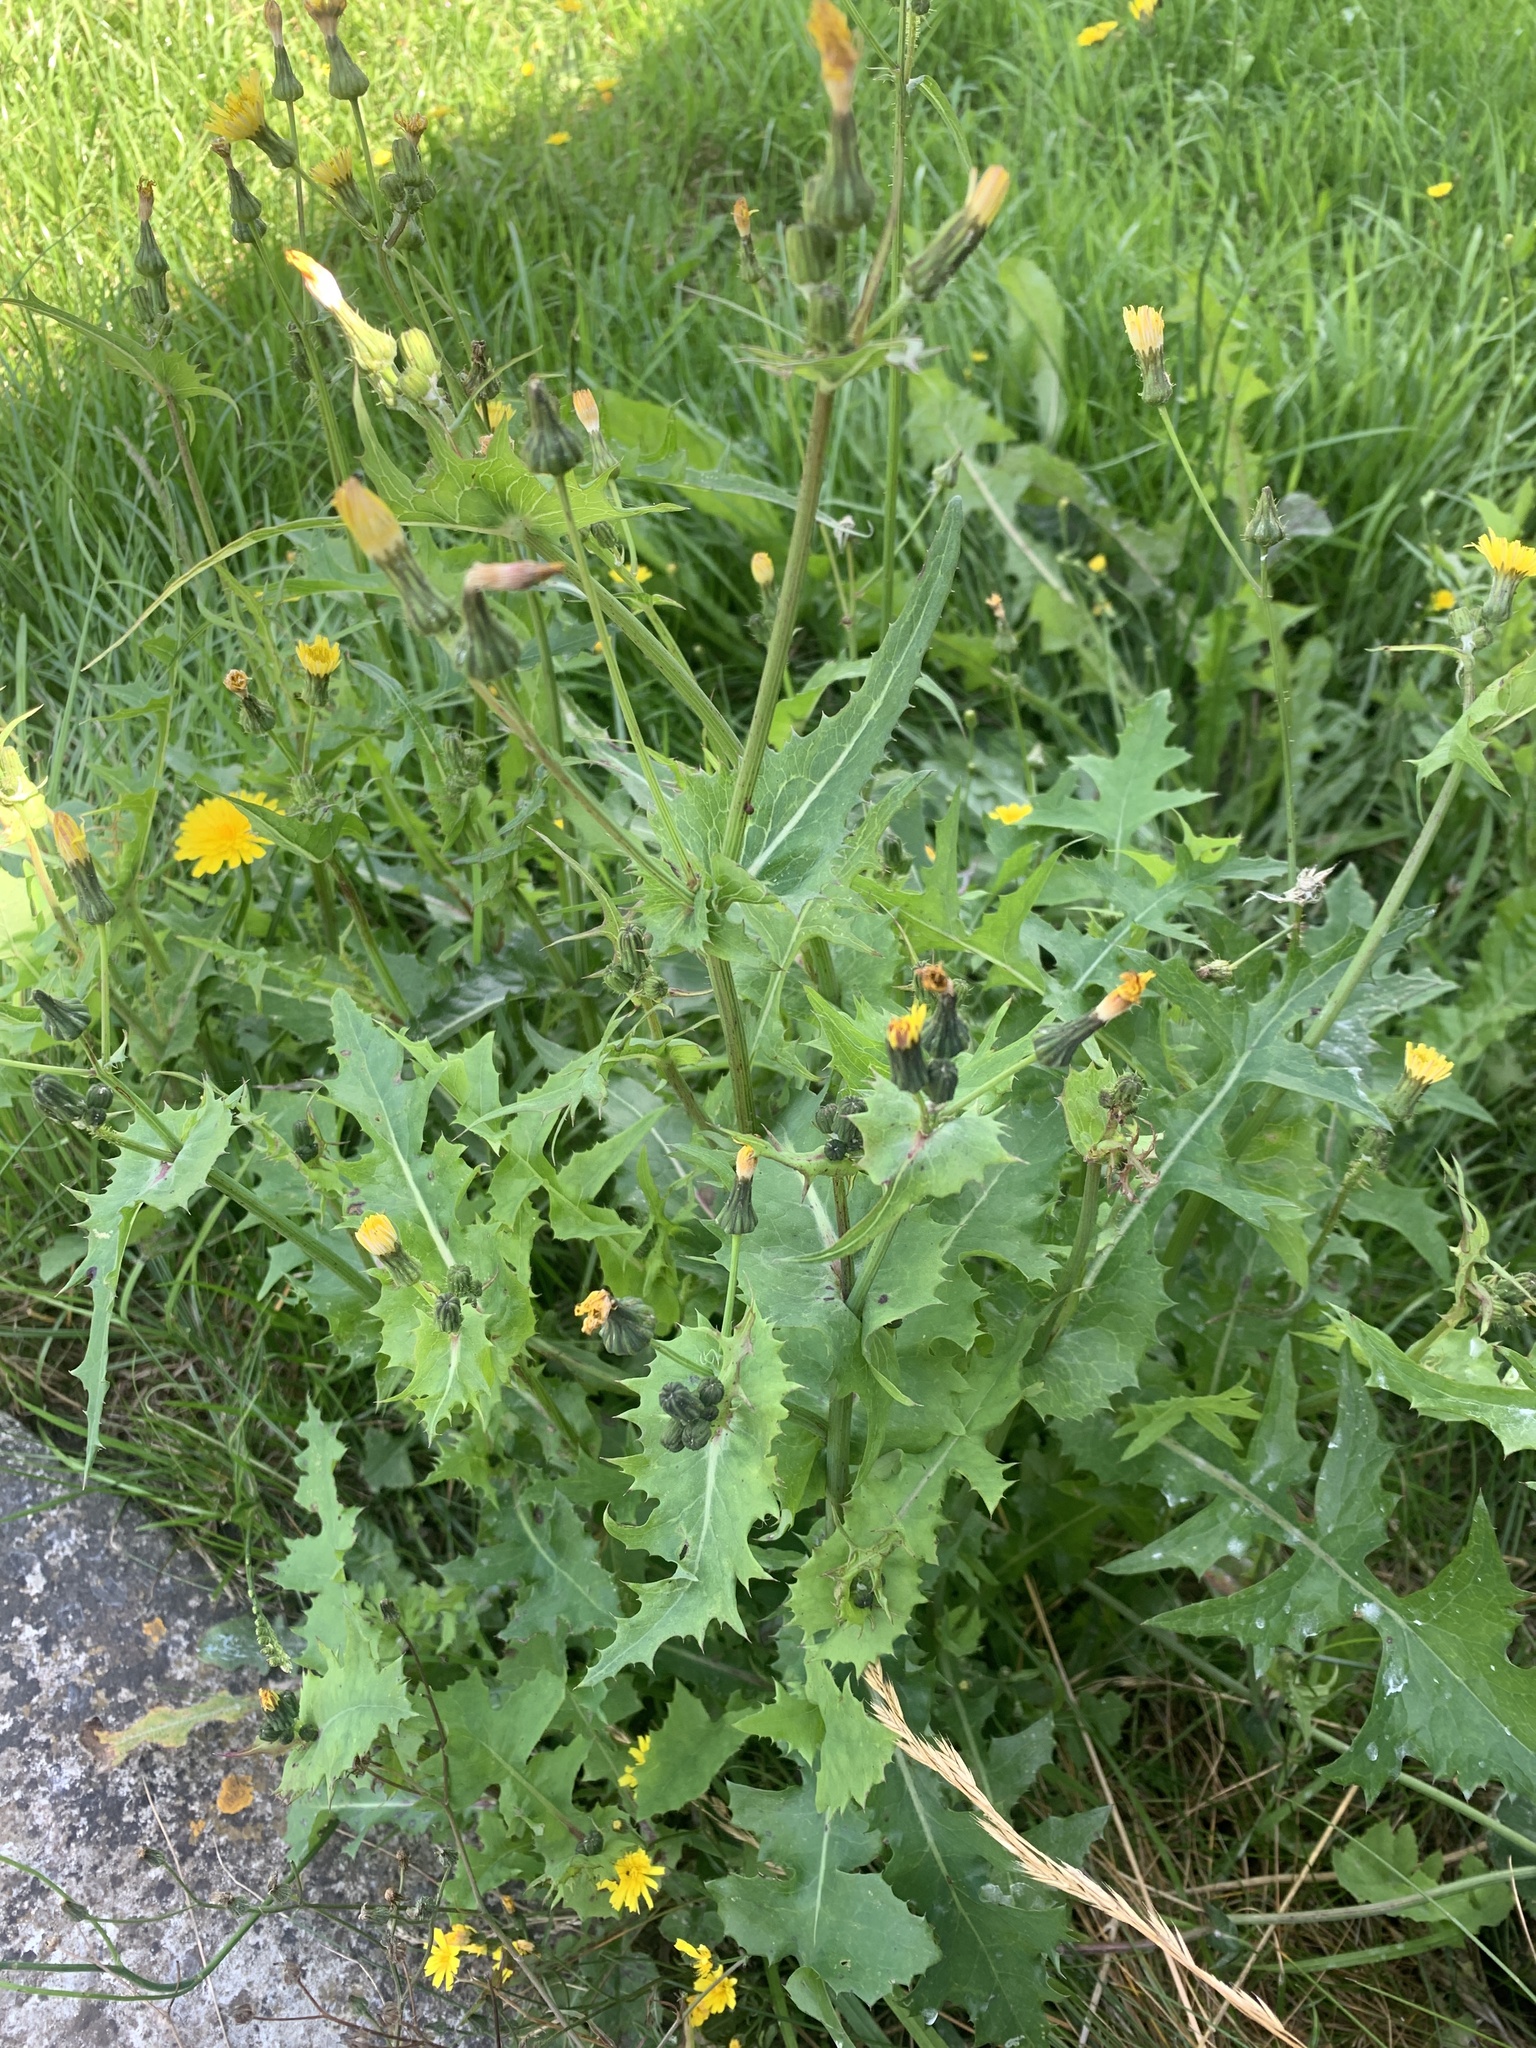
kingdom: Plantae
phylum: Tracheophyta
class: Magnoliopsida
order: Asterales
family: Asteraceae
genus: Sonchus
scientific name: Sonchus asper
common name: Prickly sow-thistle
